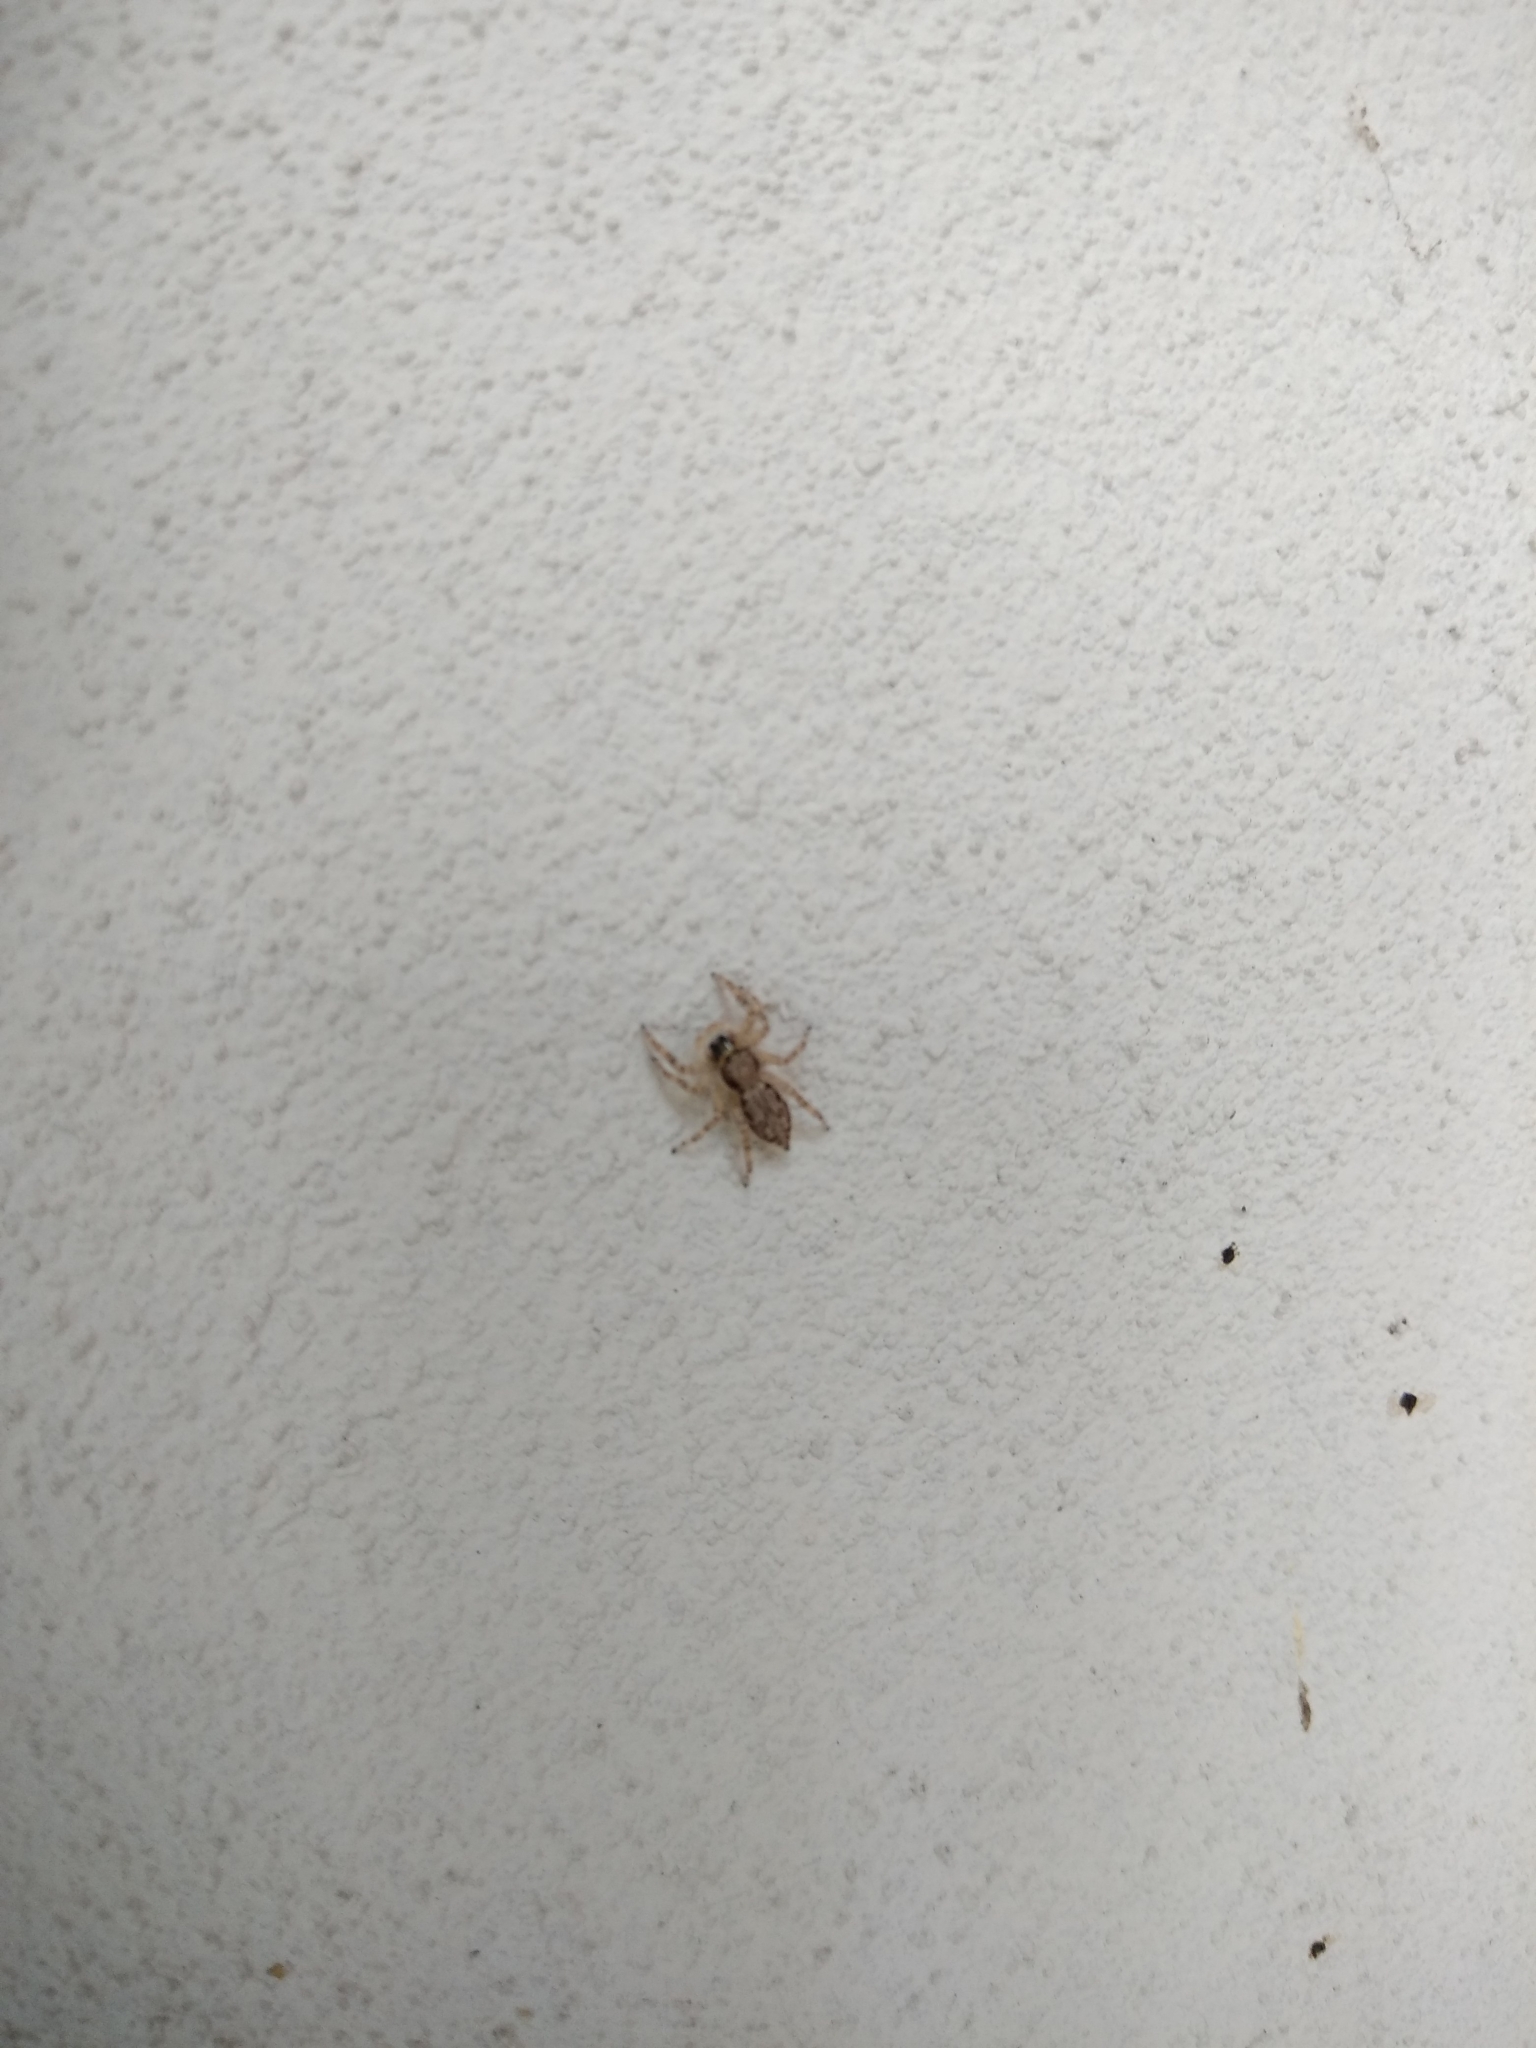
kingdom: Animalia
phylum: Arthropoda
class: Arachnida
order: Araneae
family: Salticidae
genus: Menemerus
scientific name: Menemerus bivittatus
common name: Gray wall jumper
